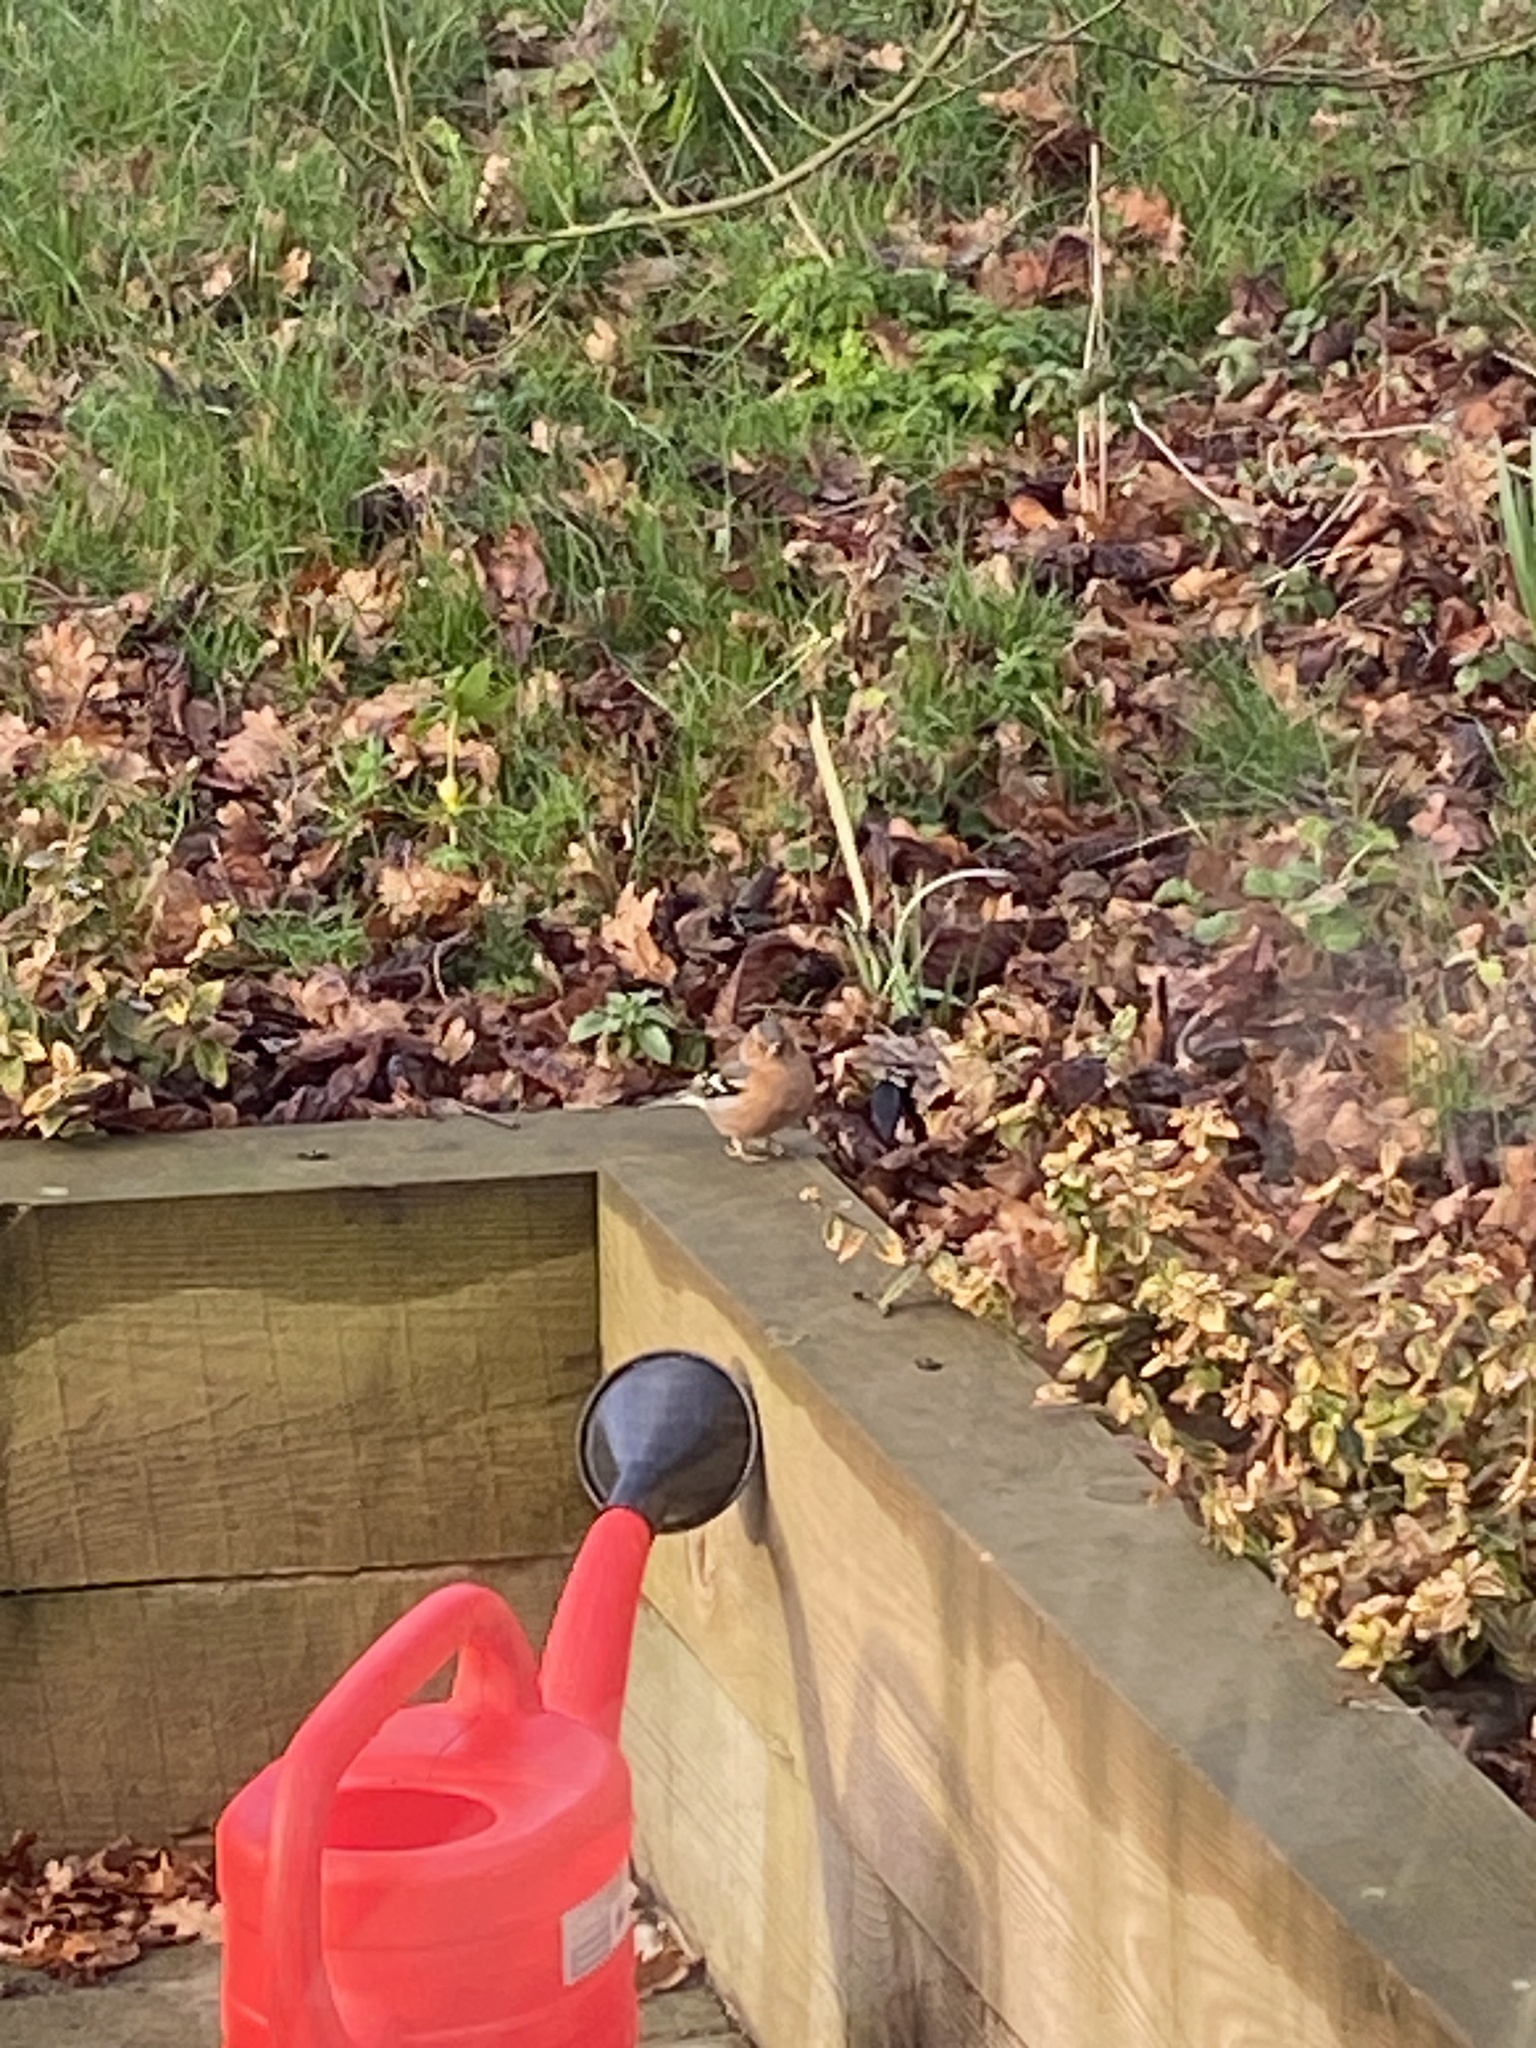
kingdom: Animalia
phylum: Chordata
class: Aves
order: Passeriformes
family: Fringillidae
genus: Fringilla
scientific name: Fringilla coelebs
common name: Common chaffinch
